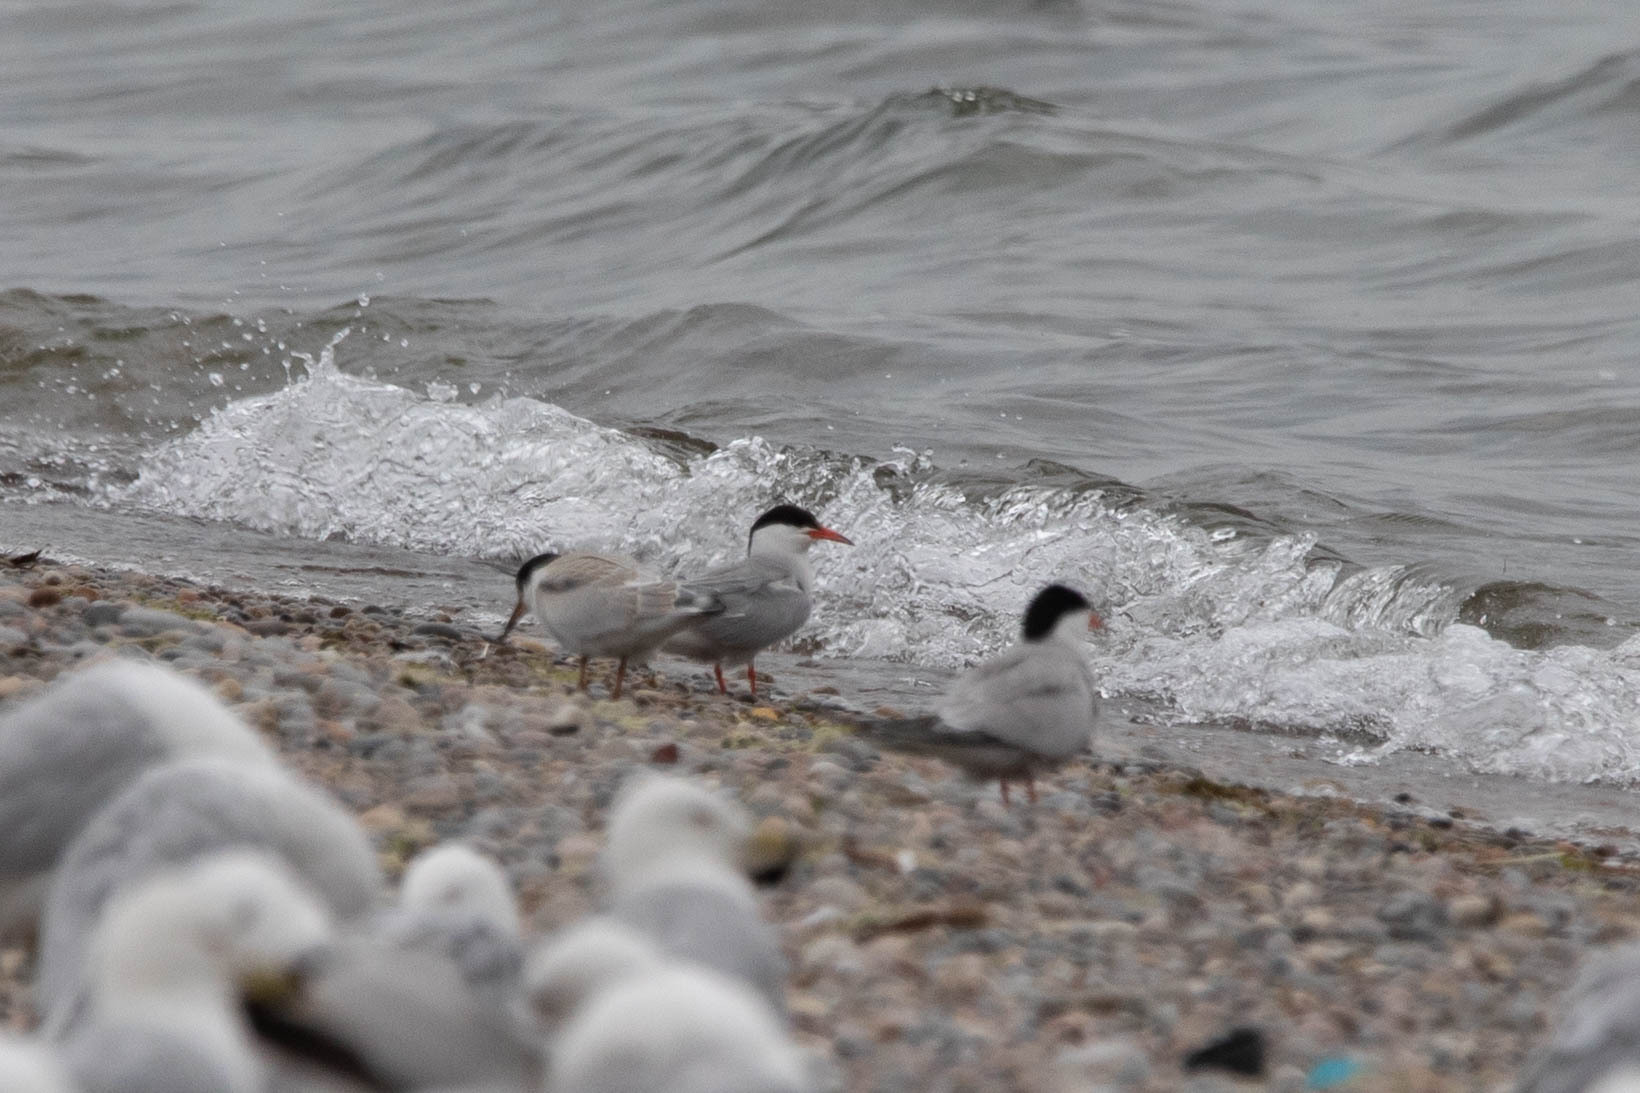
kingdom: Animalia
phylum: Chordata
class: Aves
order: Charadriiformes
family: Laridae
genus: Sterna
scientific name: Sterna hirundo
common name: Common tern
